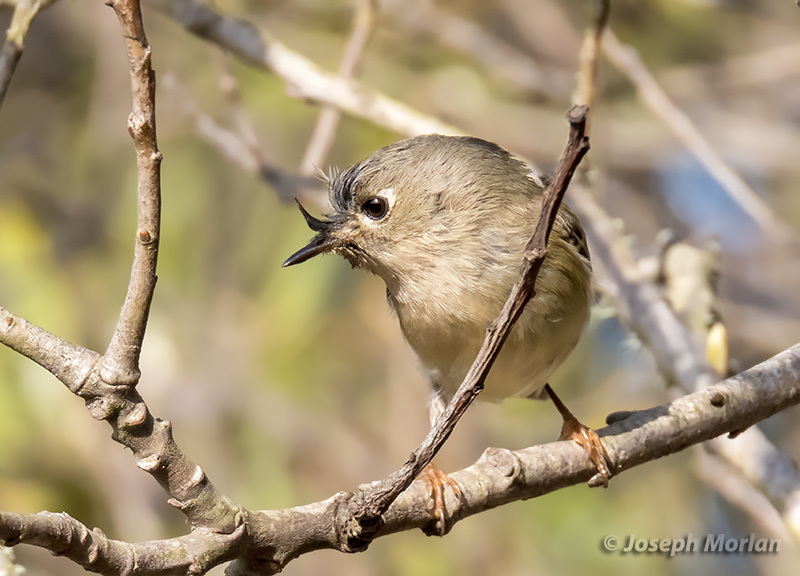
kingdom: Animalia
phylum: Chordata
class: Aves
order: Passeriformes
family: Regulidae
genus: Regulus
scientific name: Regulus calendula
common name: Ruby-crowned kinglet
